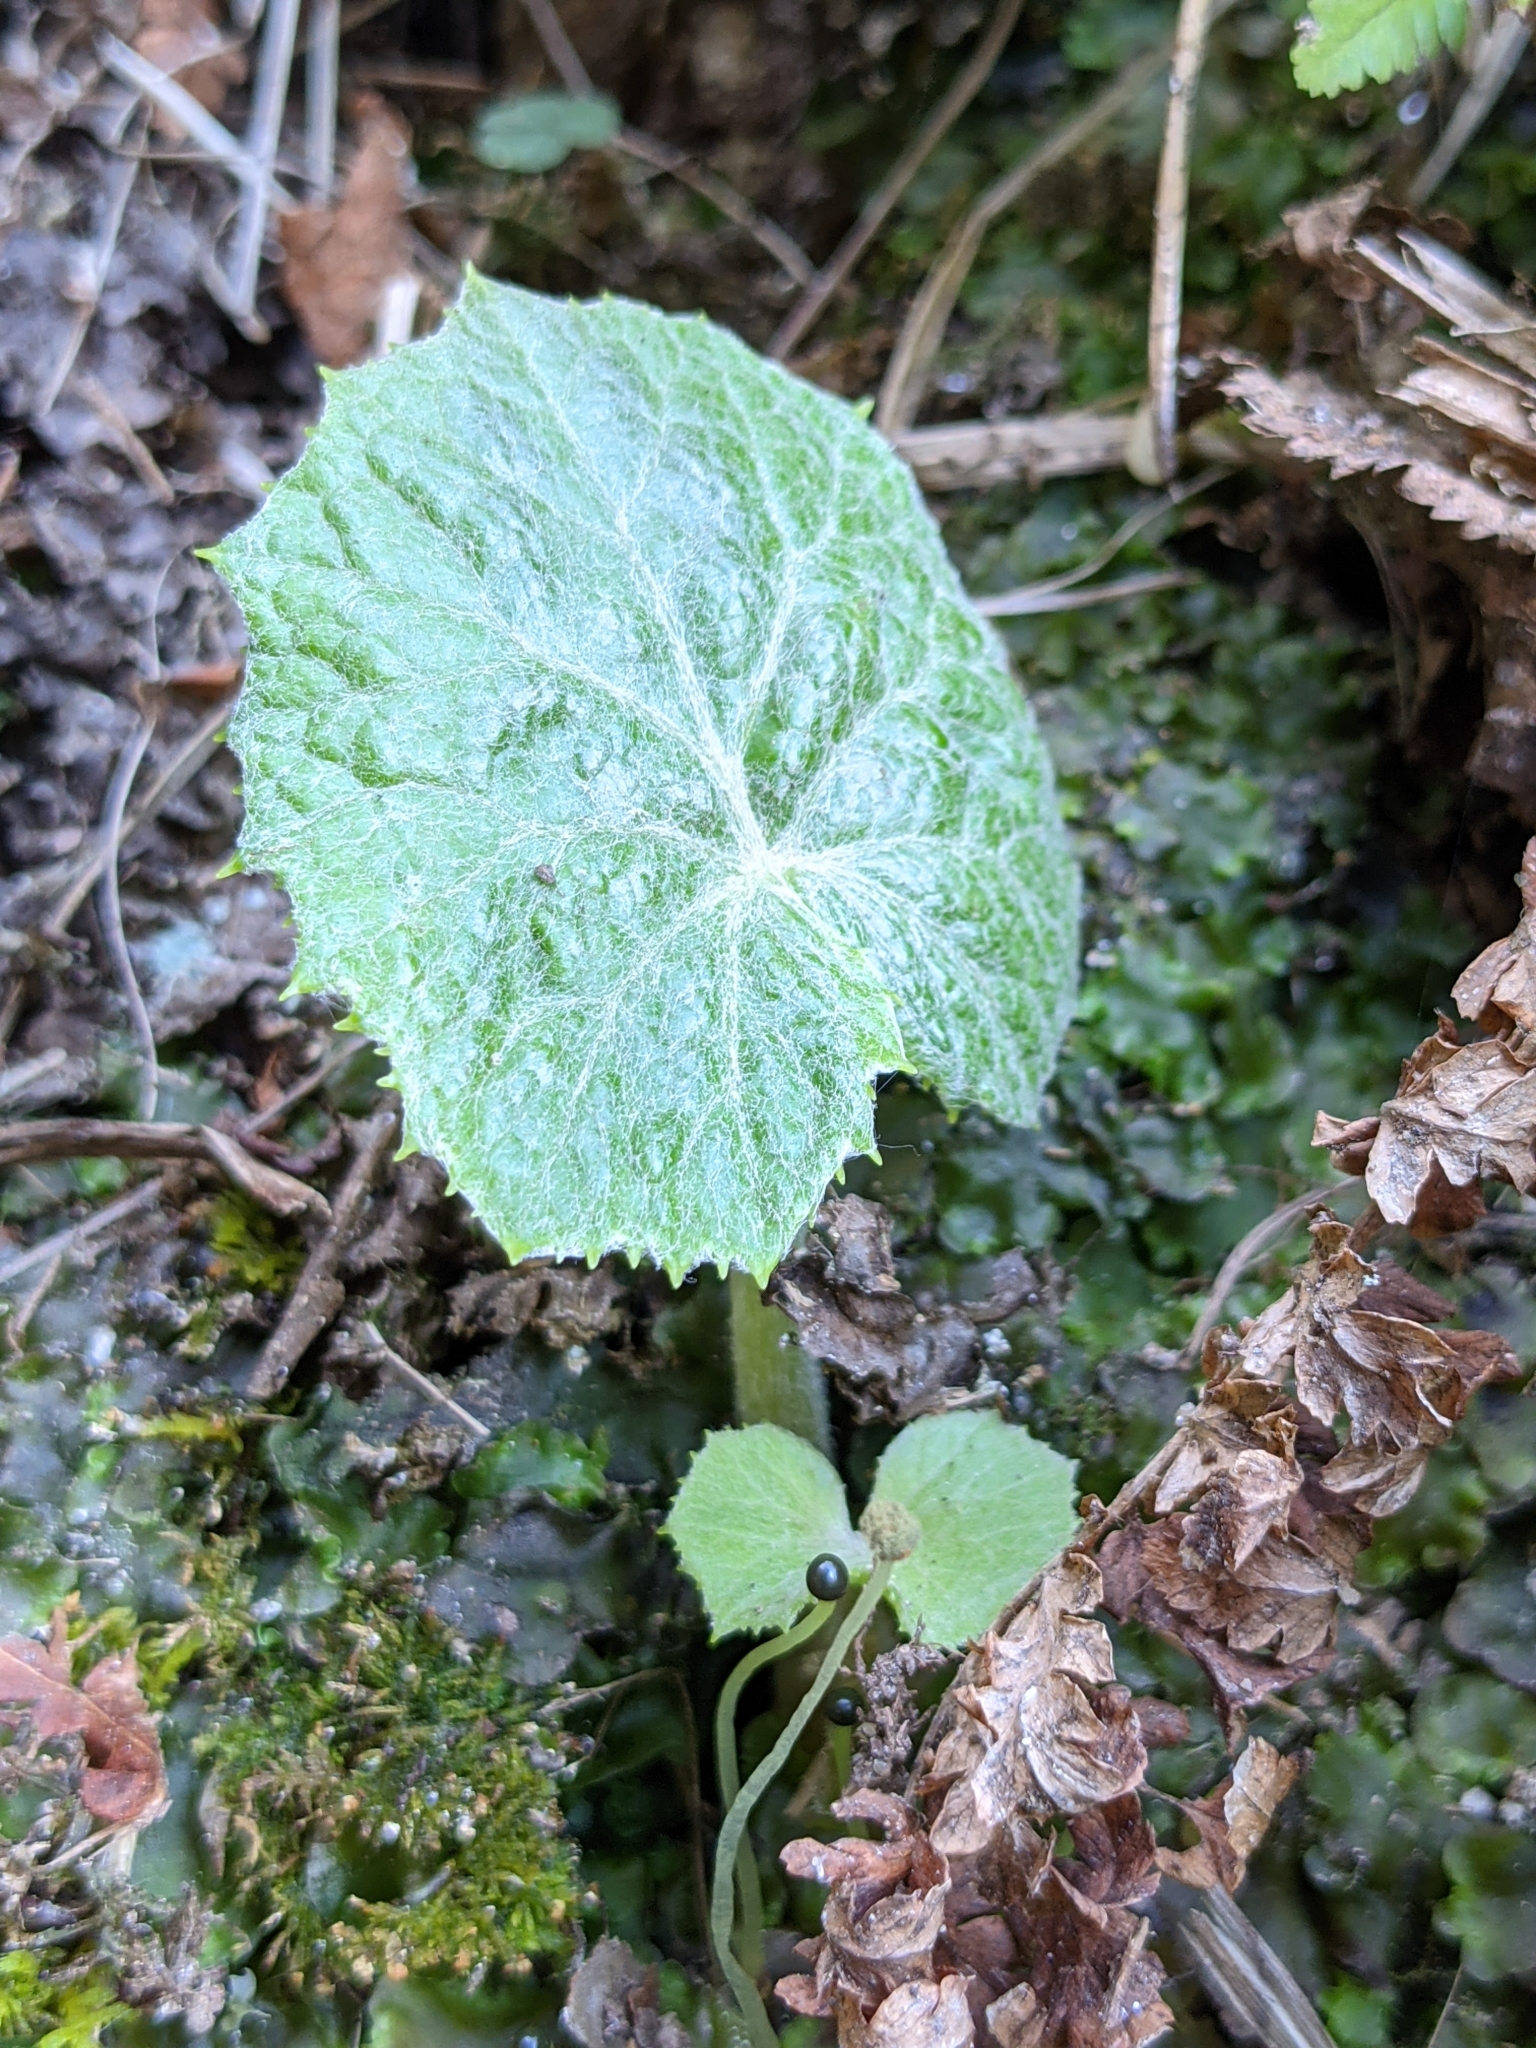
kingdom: Plantae
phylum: Tracheophyta
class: Magnoliopsida
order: Asterales
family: Asteraceae
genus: Tussilago
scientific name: Tussilago farfara
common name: Coltsfoot
